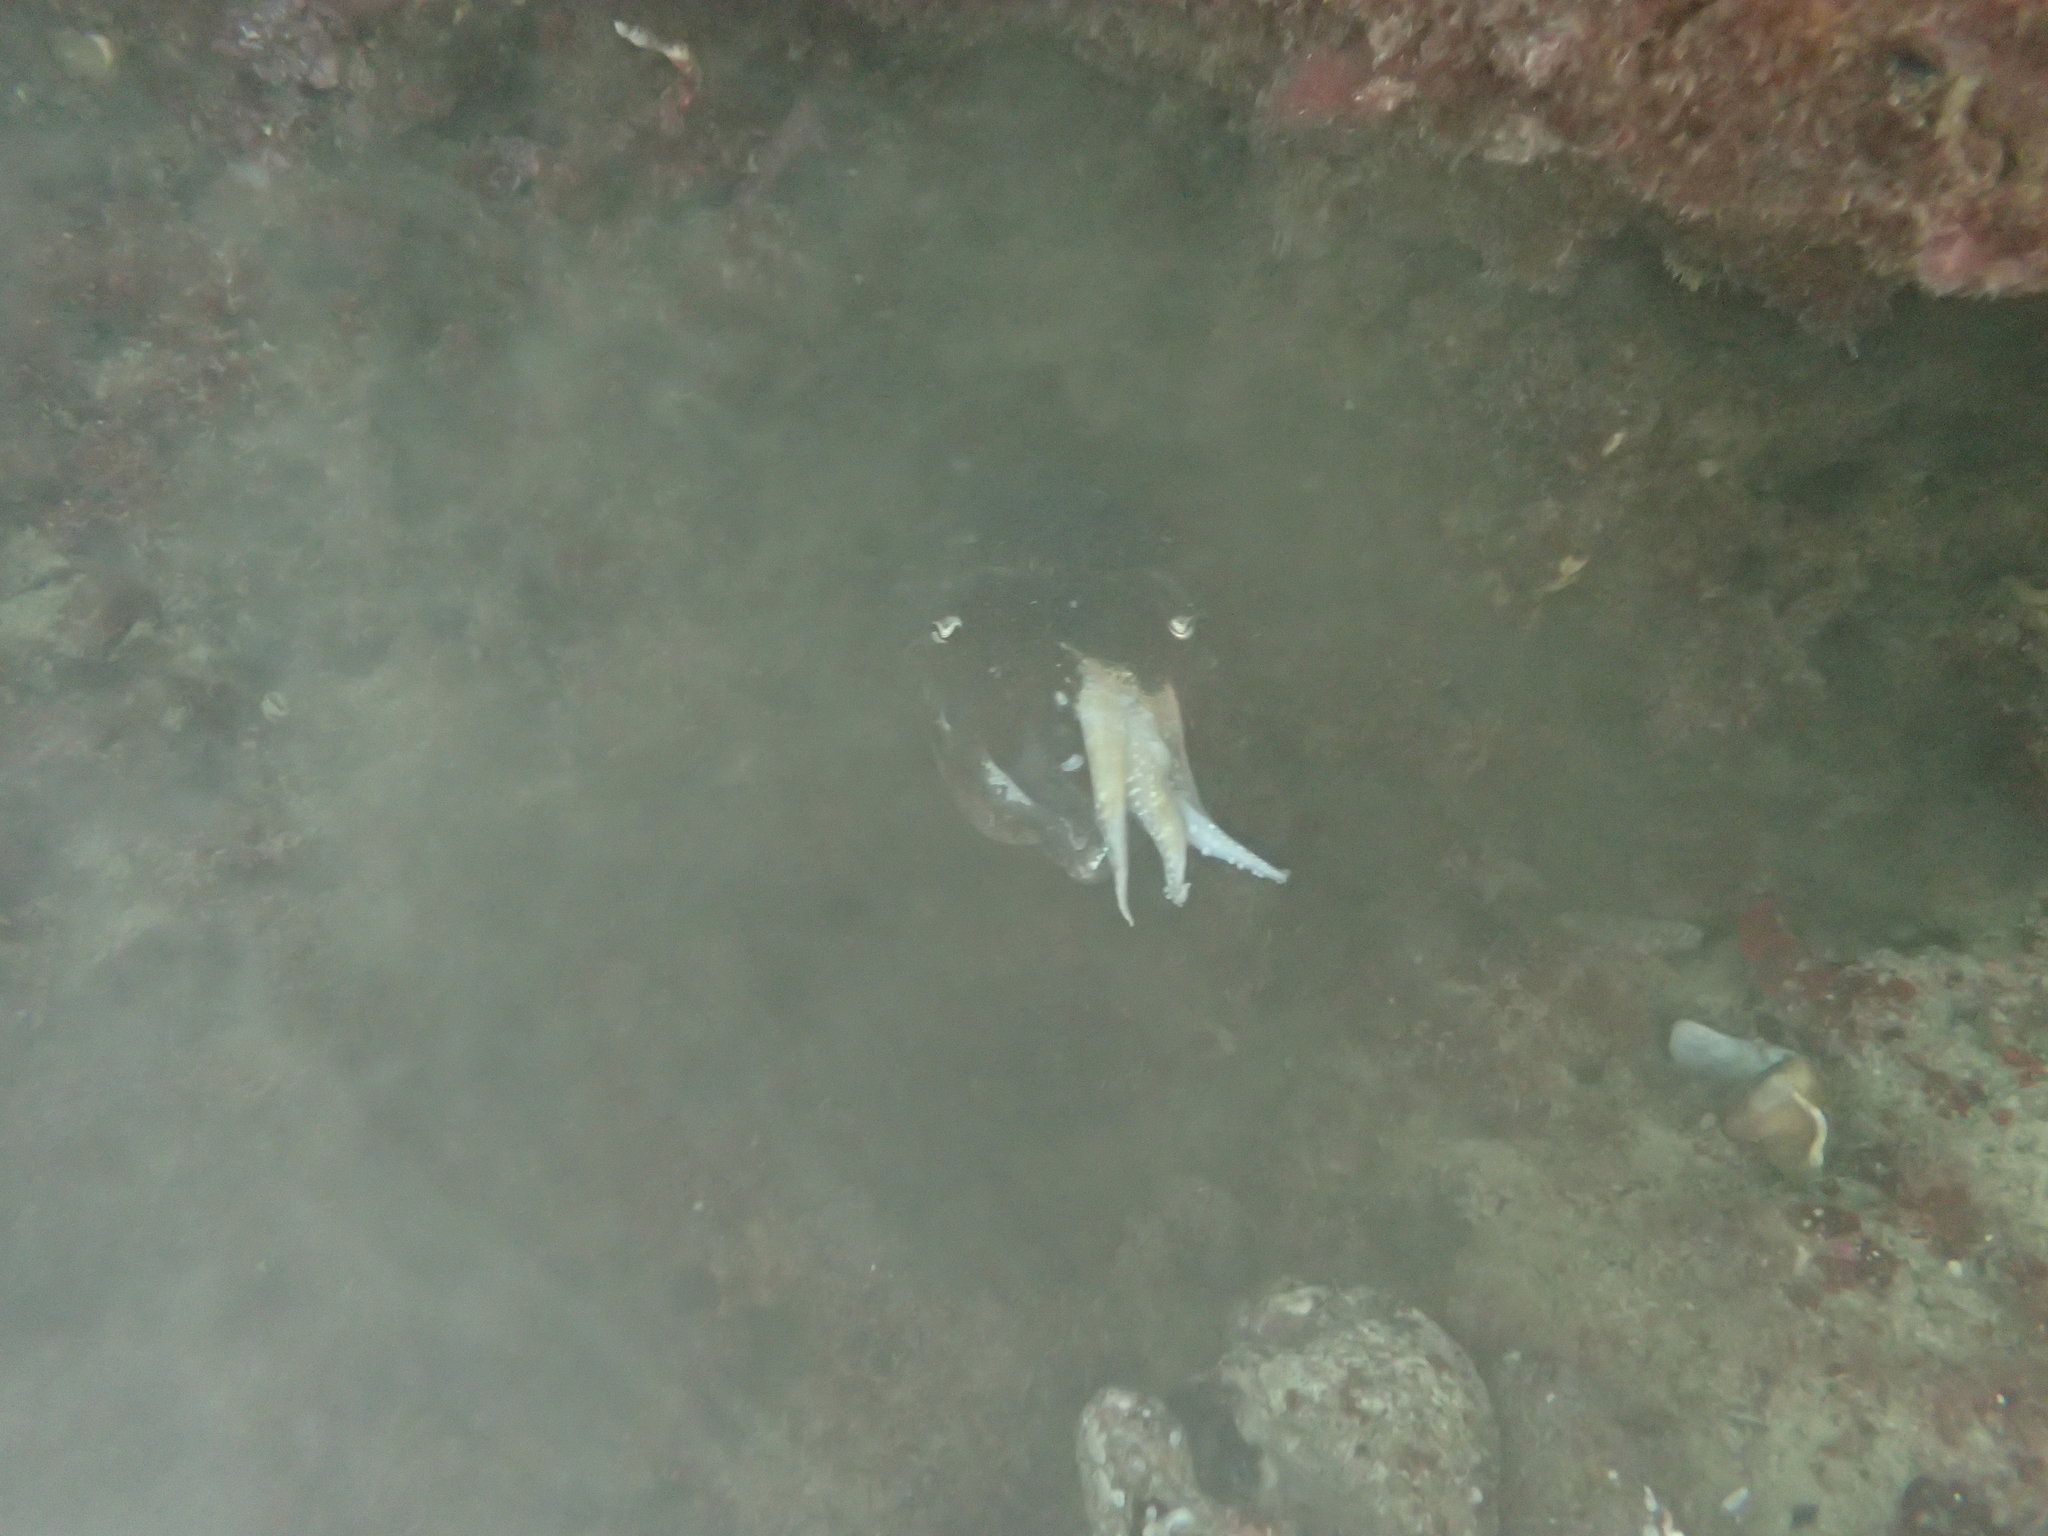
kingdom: Animalia
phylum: Mollusca
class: Cephalopoda
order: Sepiida
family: Sepiidae
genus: Sepia
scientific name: Sepia officinalis
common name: Common cuttlefish
